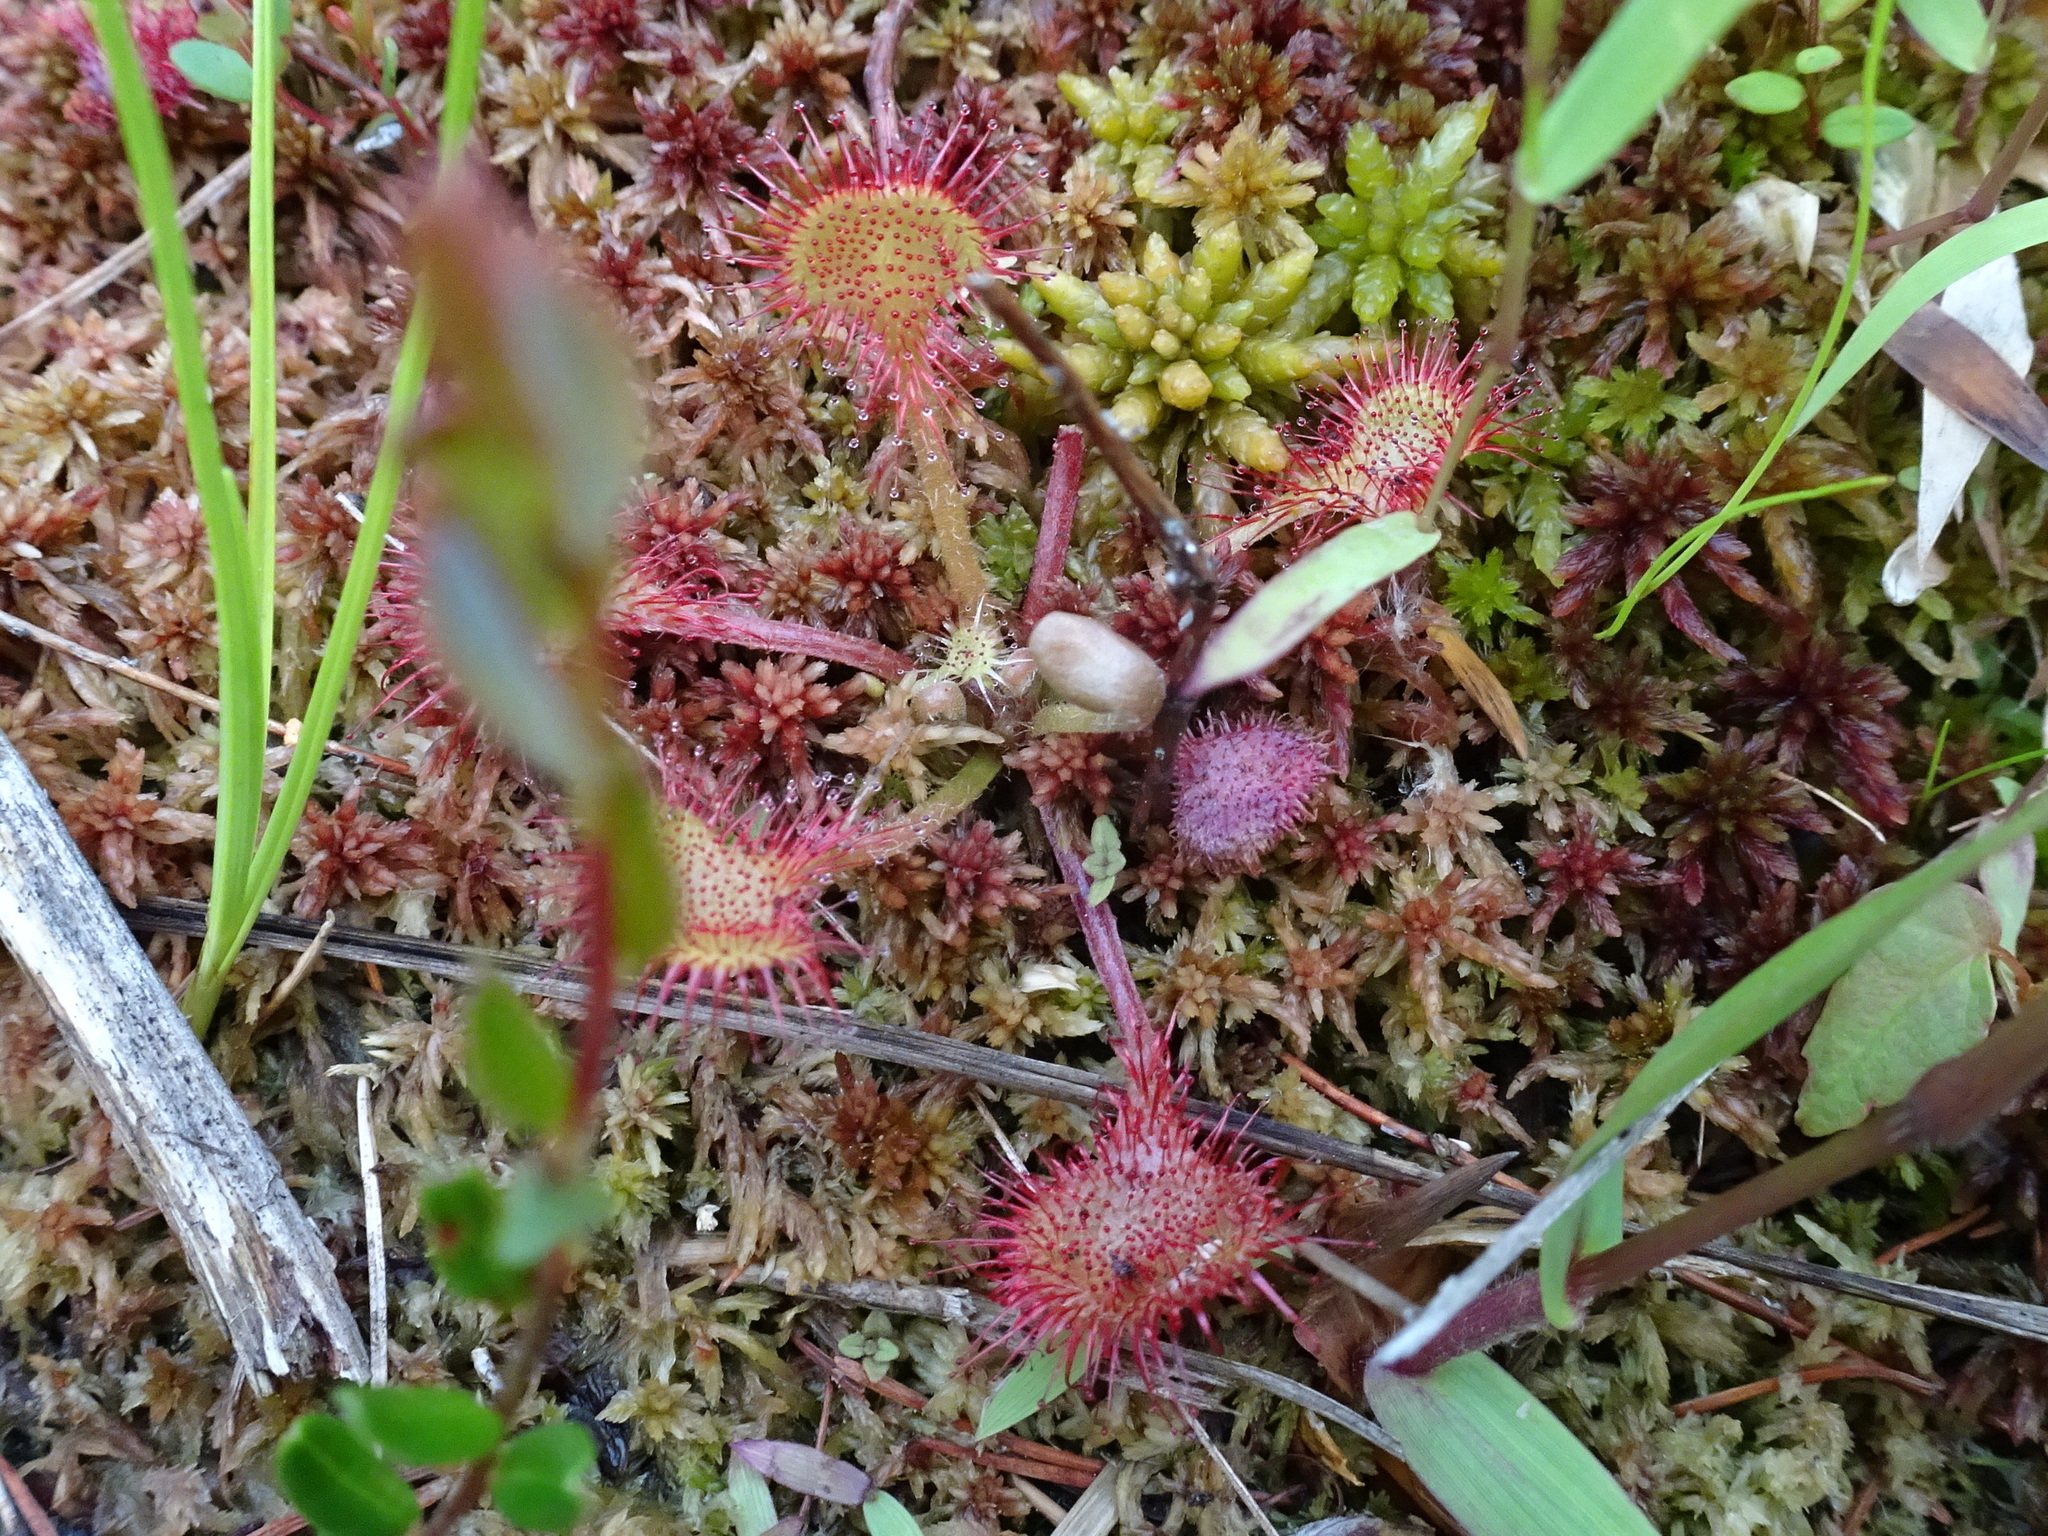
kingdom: Plantae
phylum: Tracheophyta
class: Magnoliopsida
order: Caryophyllales
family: Droseraceae
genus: Drosera
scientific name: Drosera rotundifolia
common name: Round-leaved sundew
